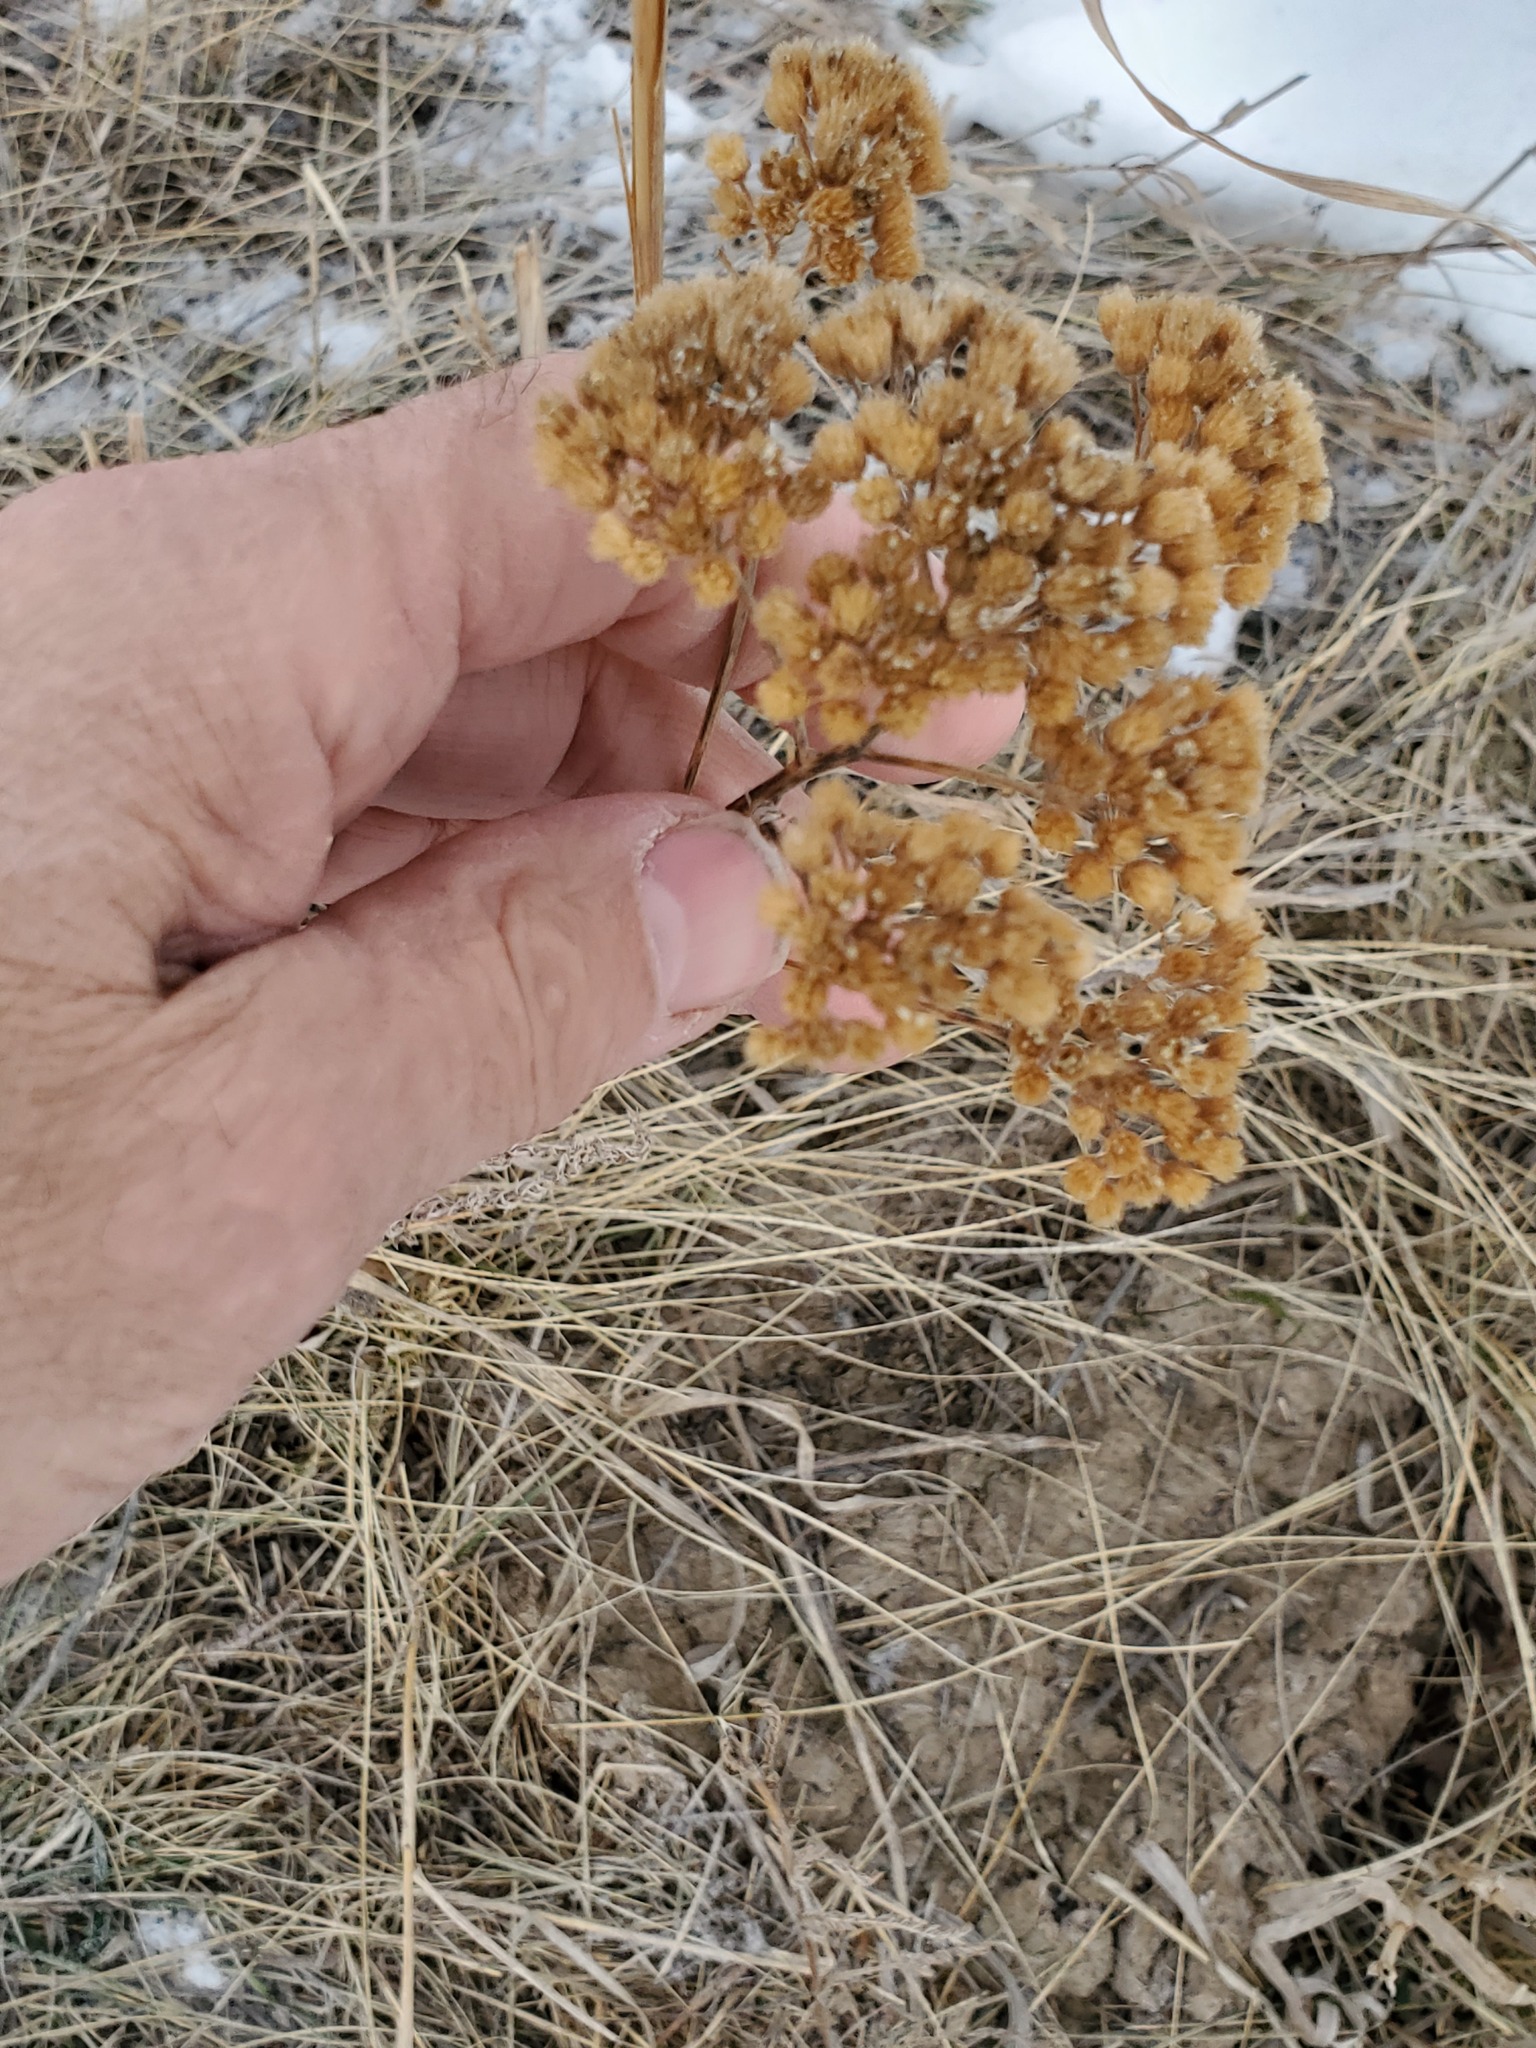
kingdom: Plantae
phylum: Tracheophyta
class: Magnoliopsida
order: Asterales
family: Asteraceae
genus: Achillea
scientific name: Achillea millefolium
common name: Yarrow
